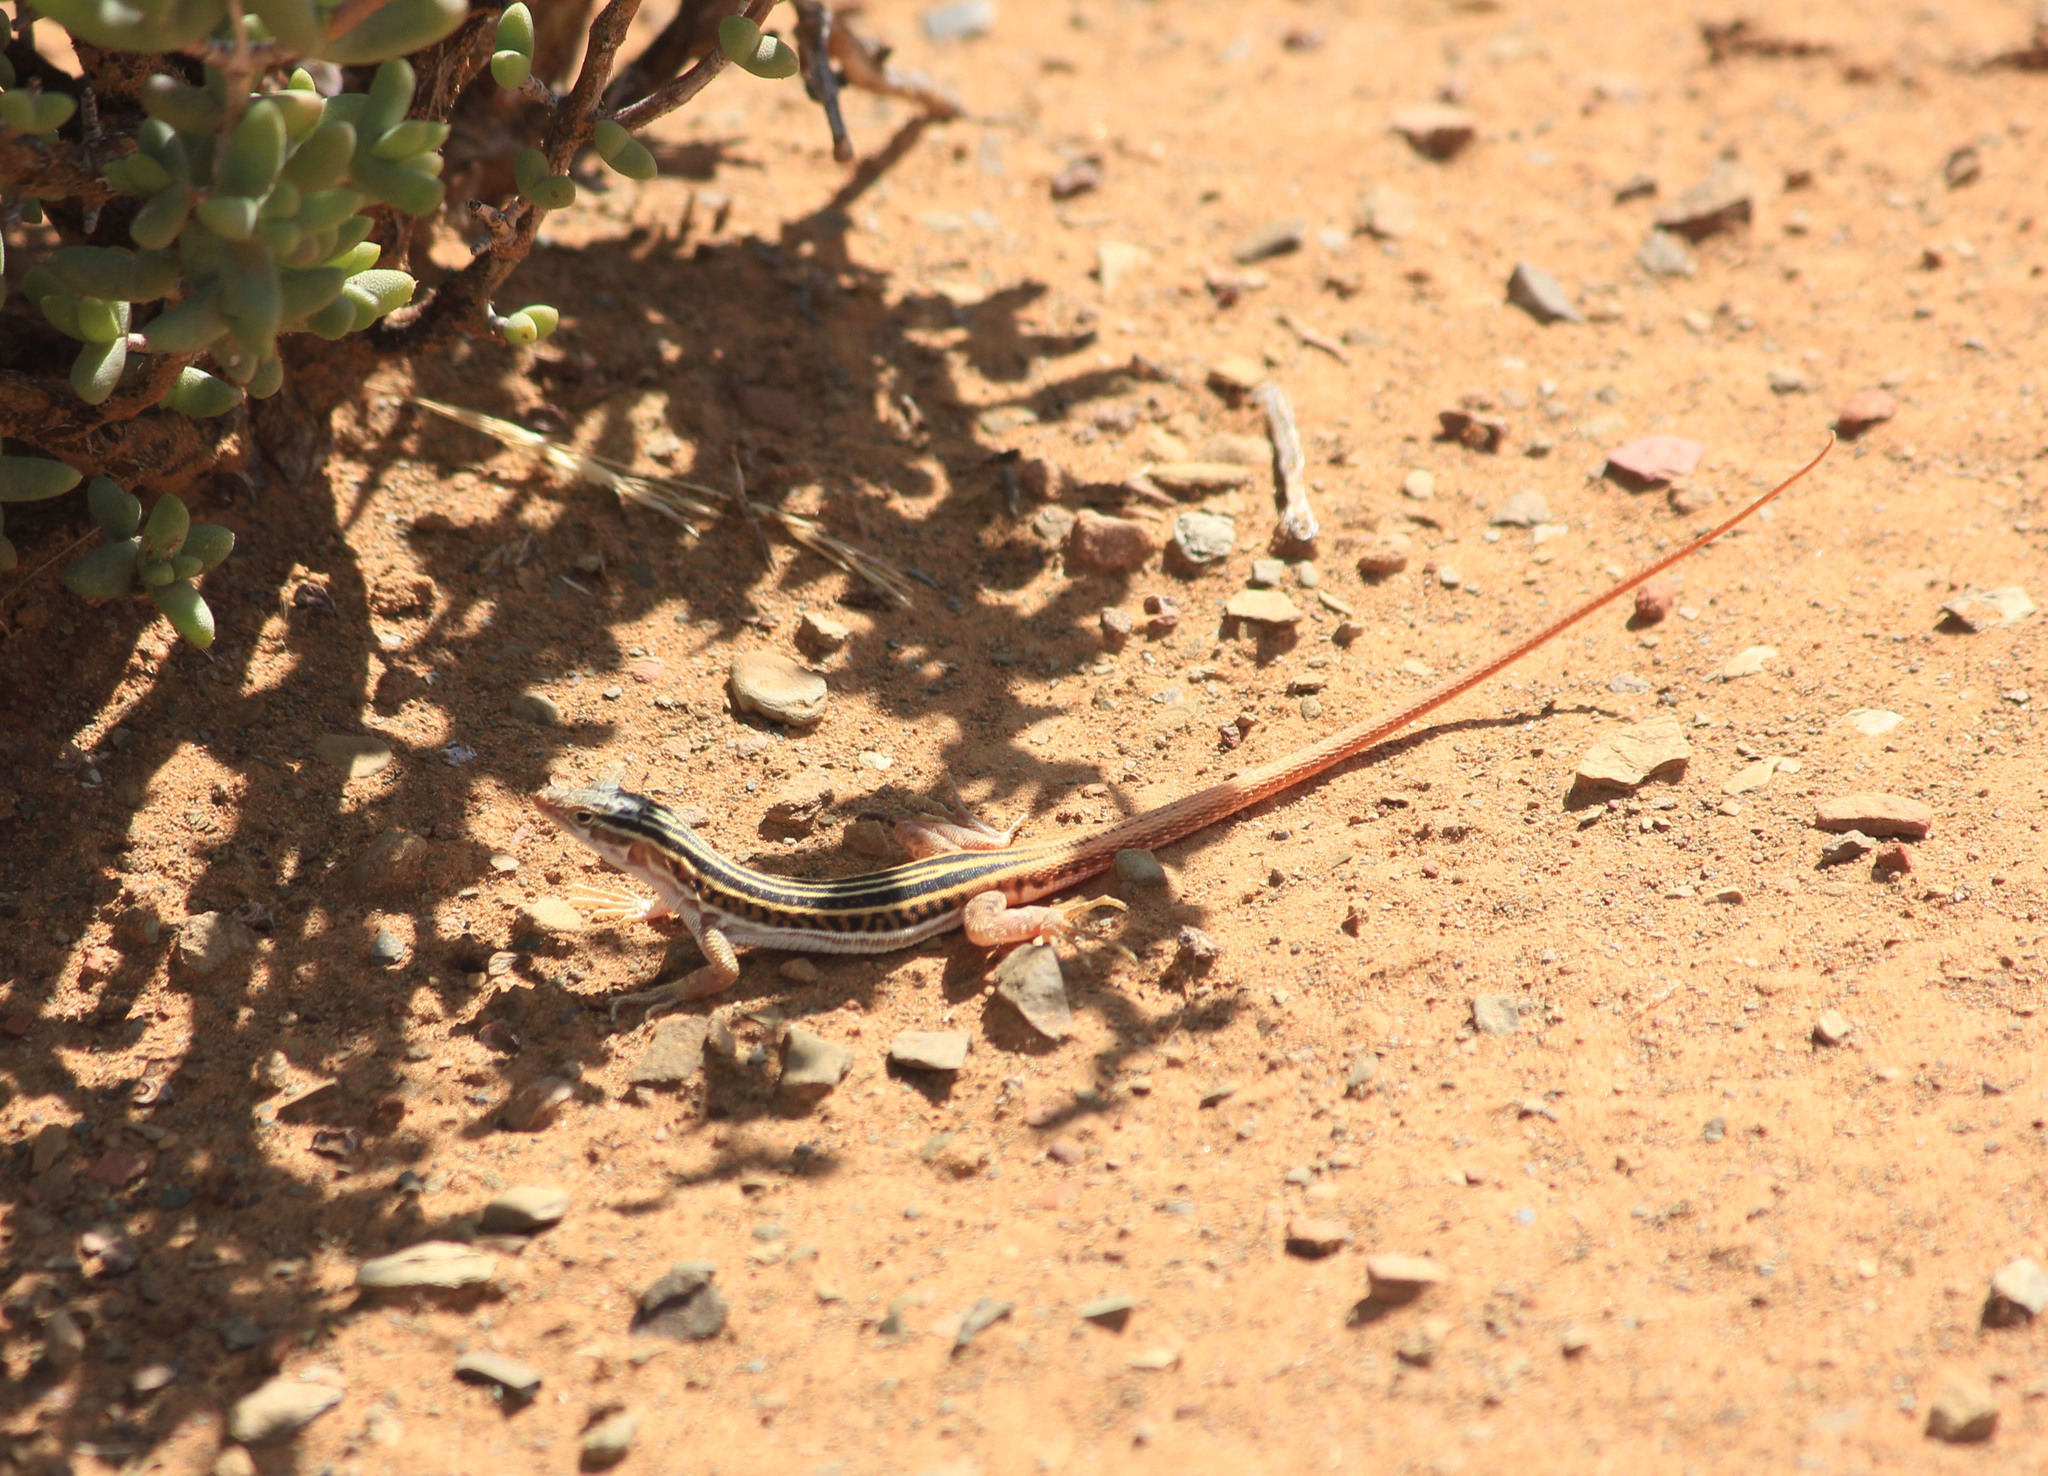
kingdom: Animalia
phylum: Chordata
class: Squamata
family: Lacertidae
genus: Pedioplanis
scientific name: Pedioplanis laticeps
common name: Karoo sand lizard
